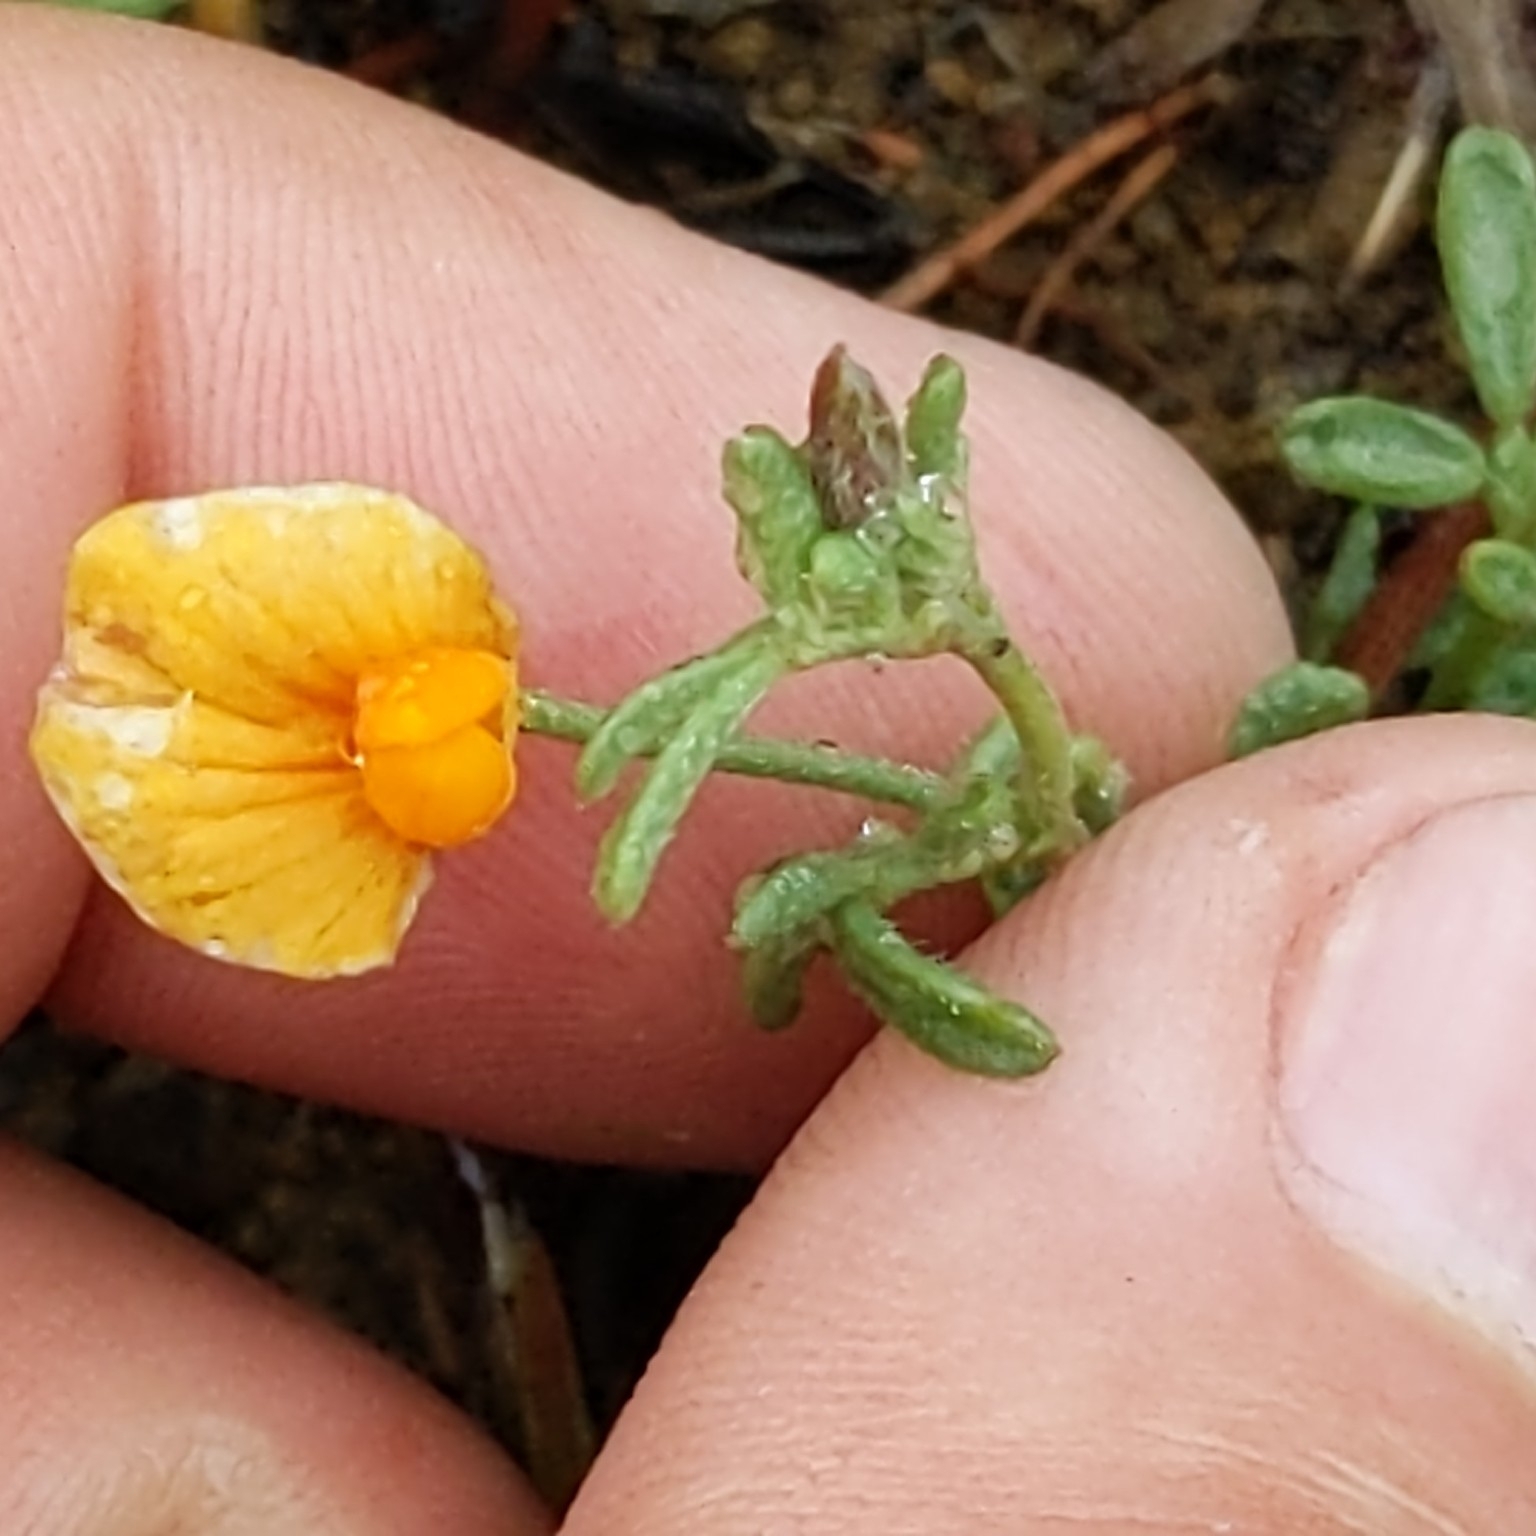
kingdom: Plantae
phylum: Tracheophyta
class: Magnoliopsida
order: Fabales
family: Fabaceae
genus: Acmispon
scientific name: Acmispon strigosus
